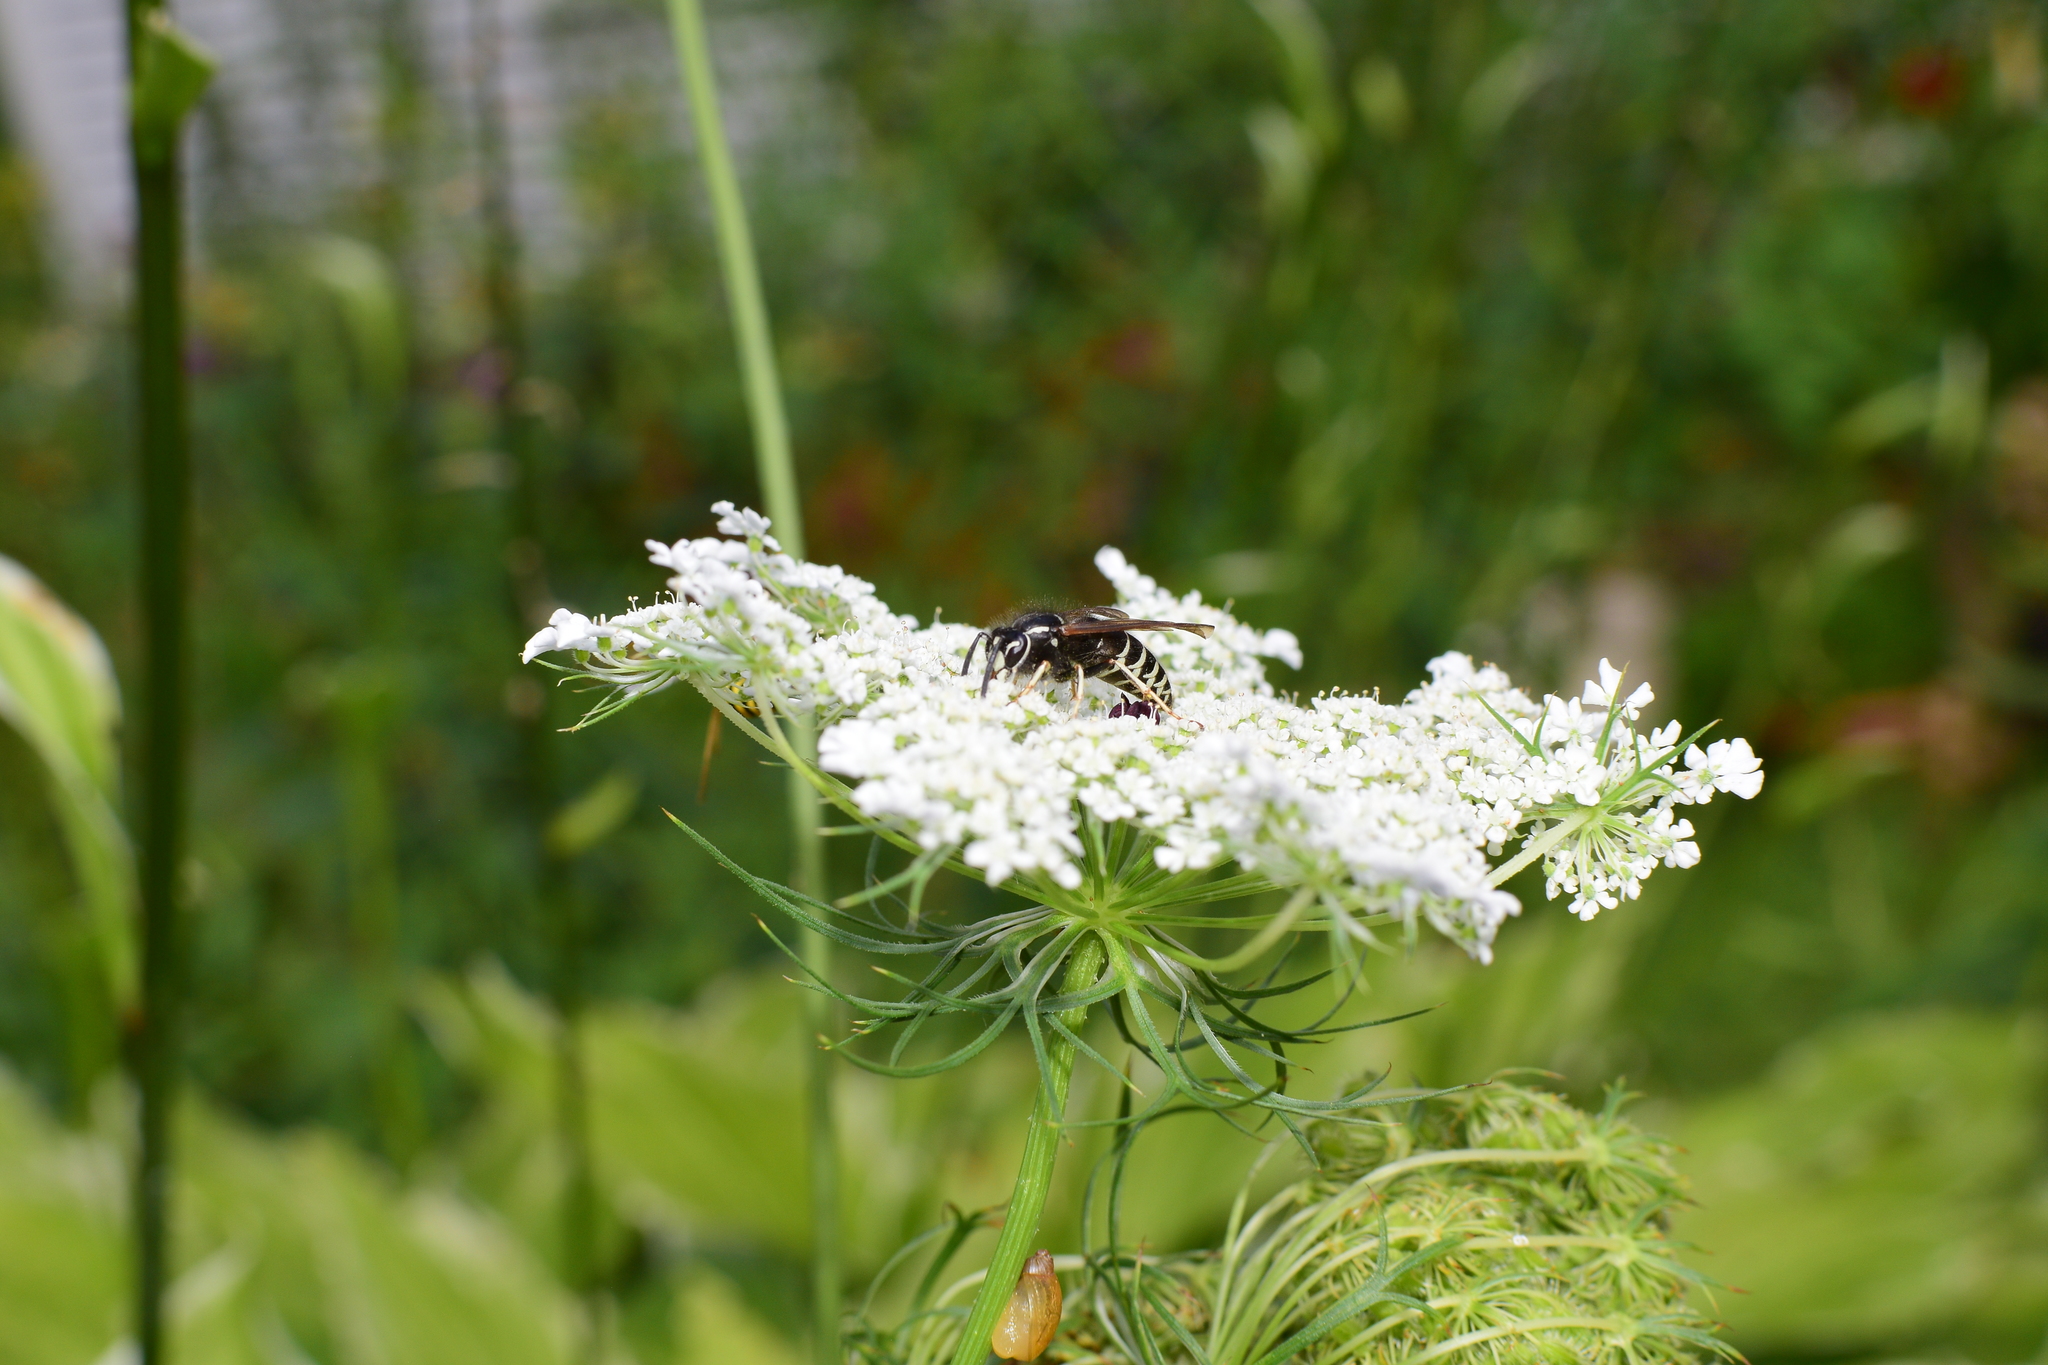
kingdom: Animalia
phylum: Arthropoda
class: Insecta
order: Hymenoptera
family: Vespidae
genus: Vespula
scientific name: Vespula consobrina
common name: Blackjacket
